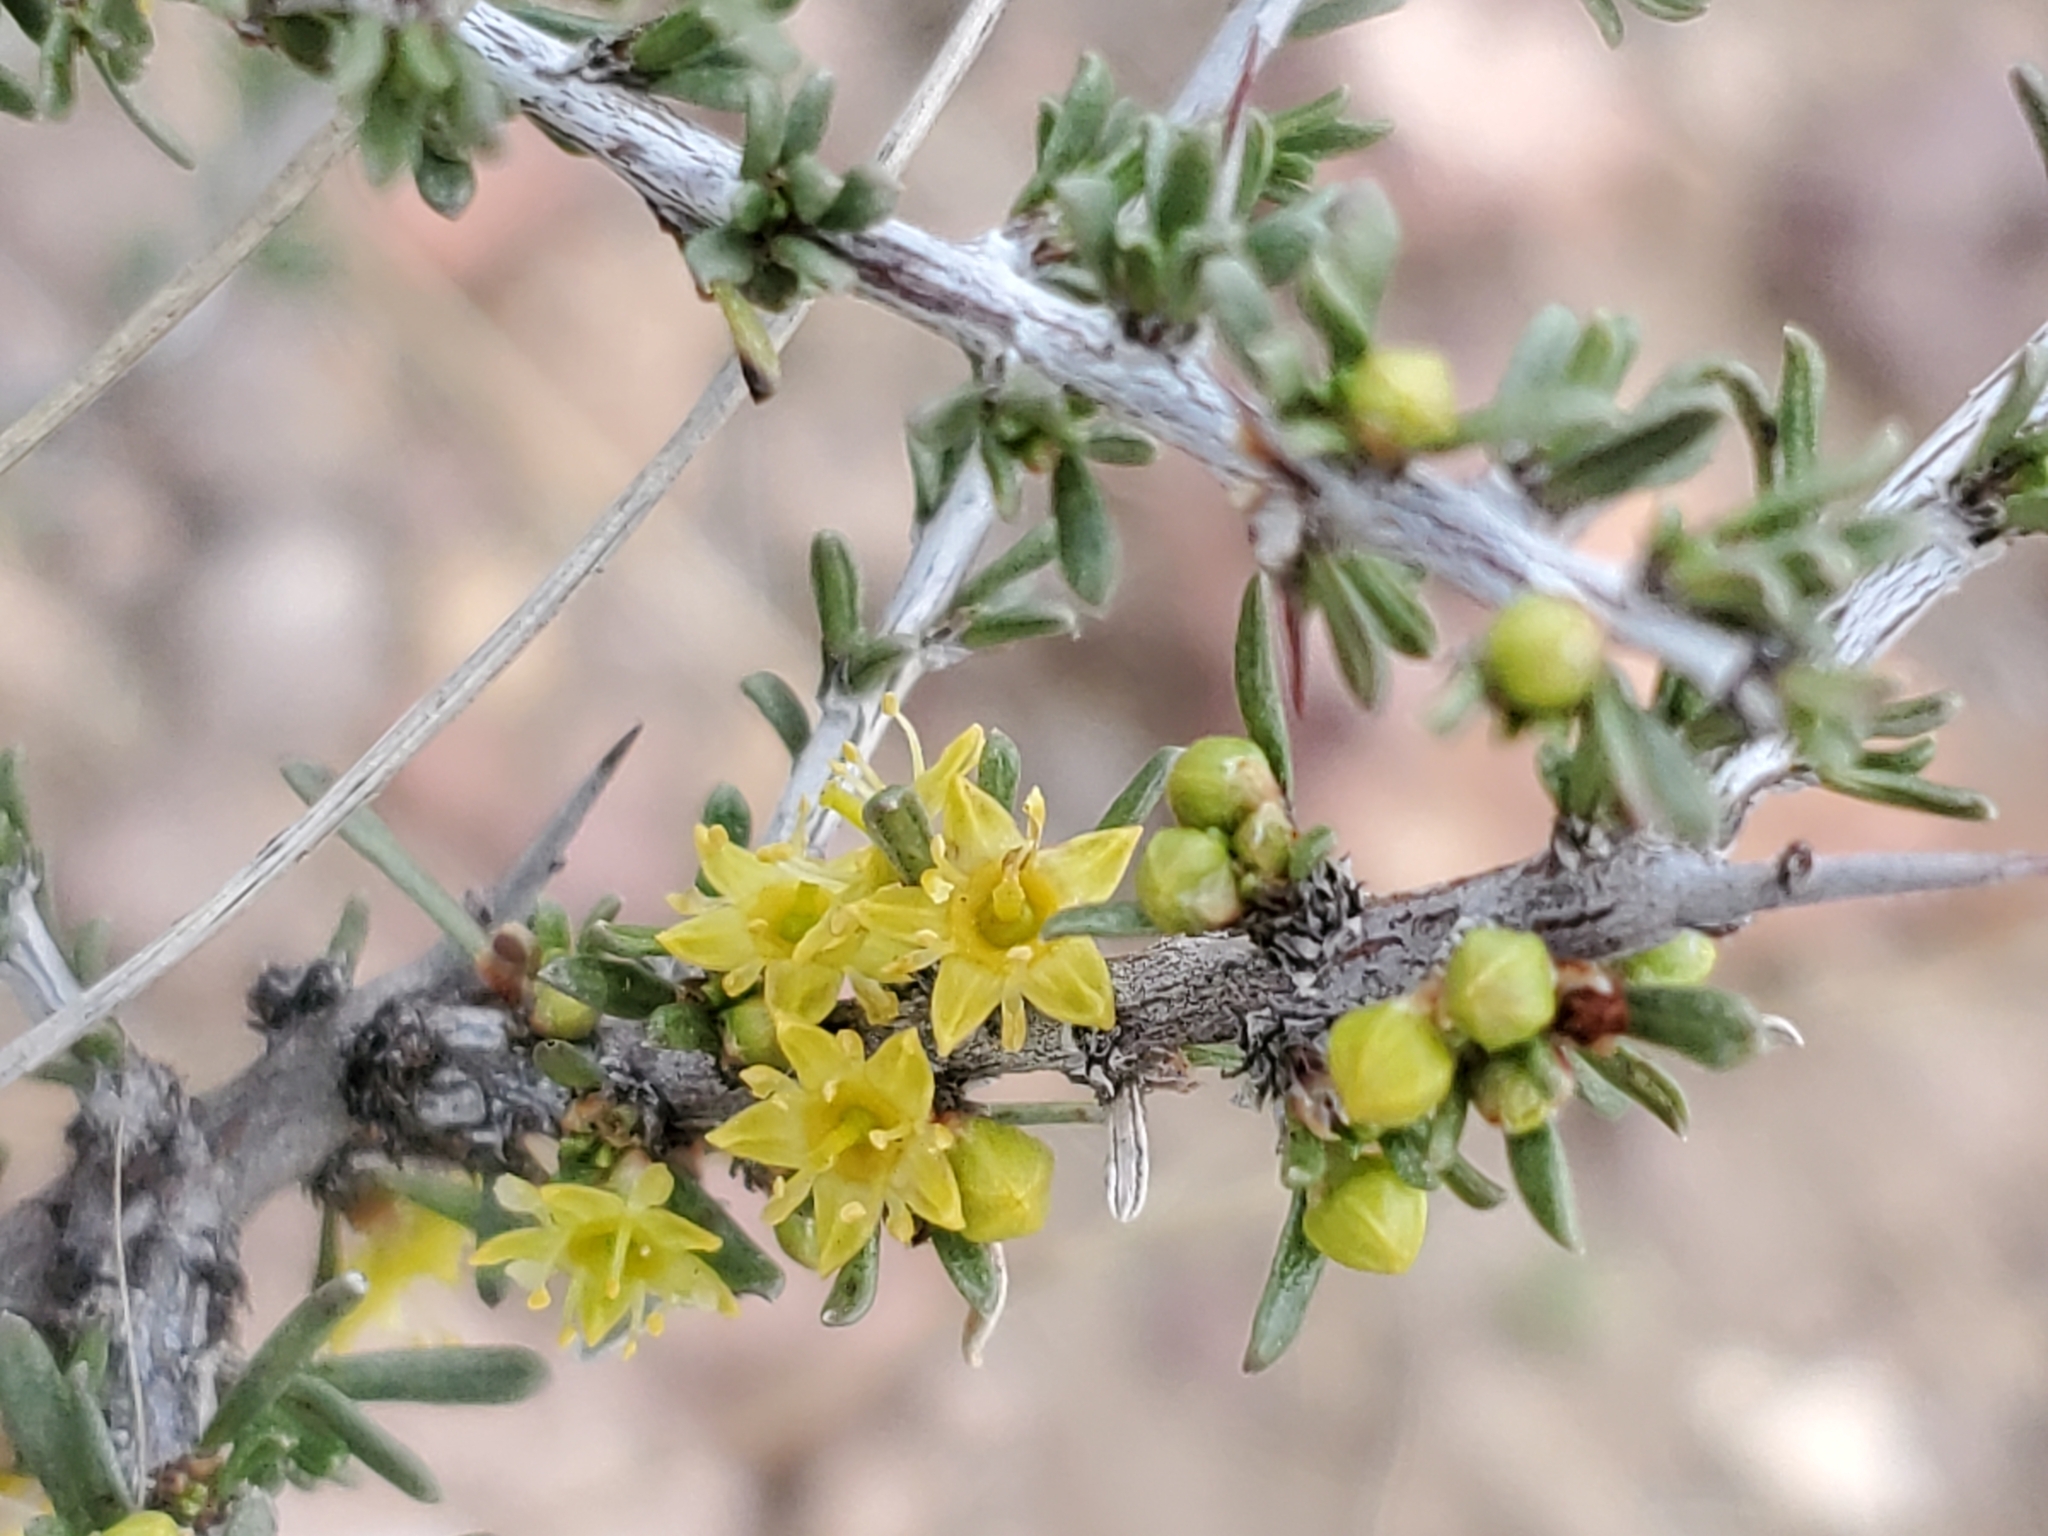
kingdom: Plantae
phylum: Tracheophyta
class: Magnoliopsida
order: Rosales
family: Rhamnaceae
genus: Condalia
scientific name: Condalia ericoides
